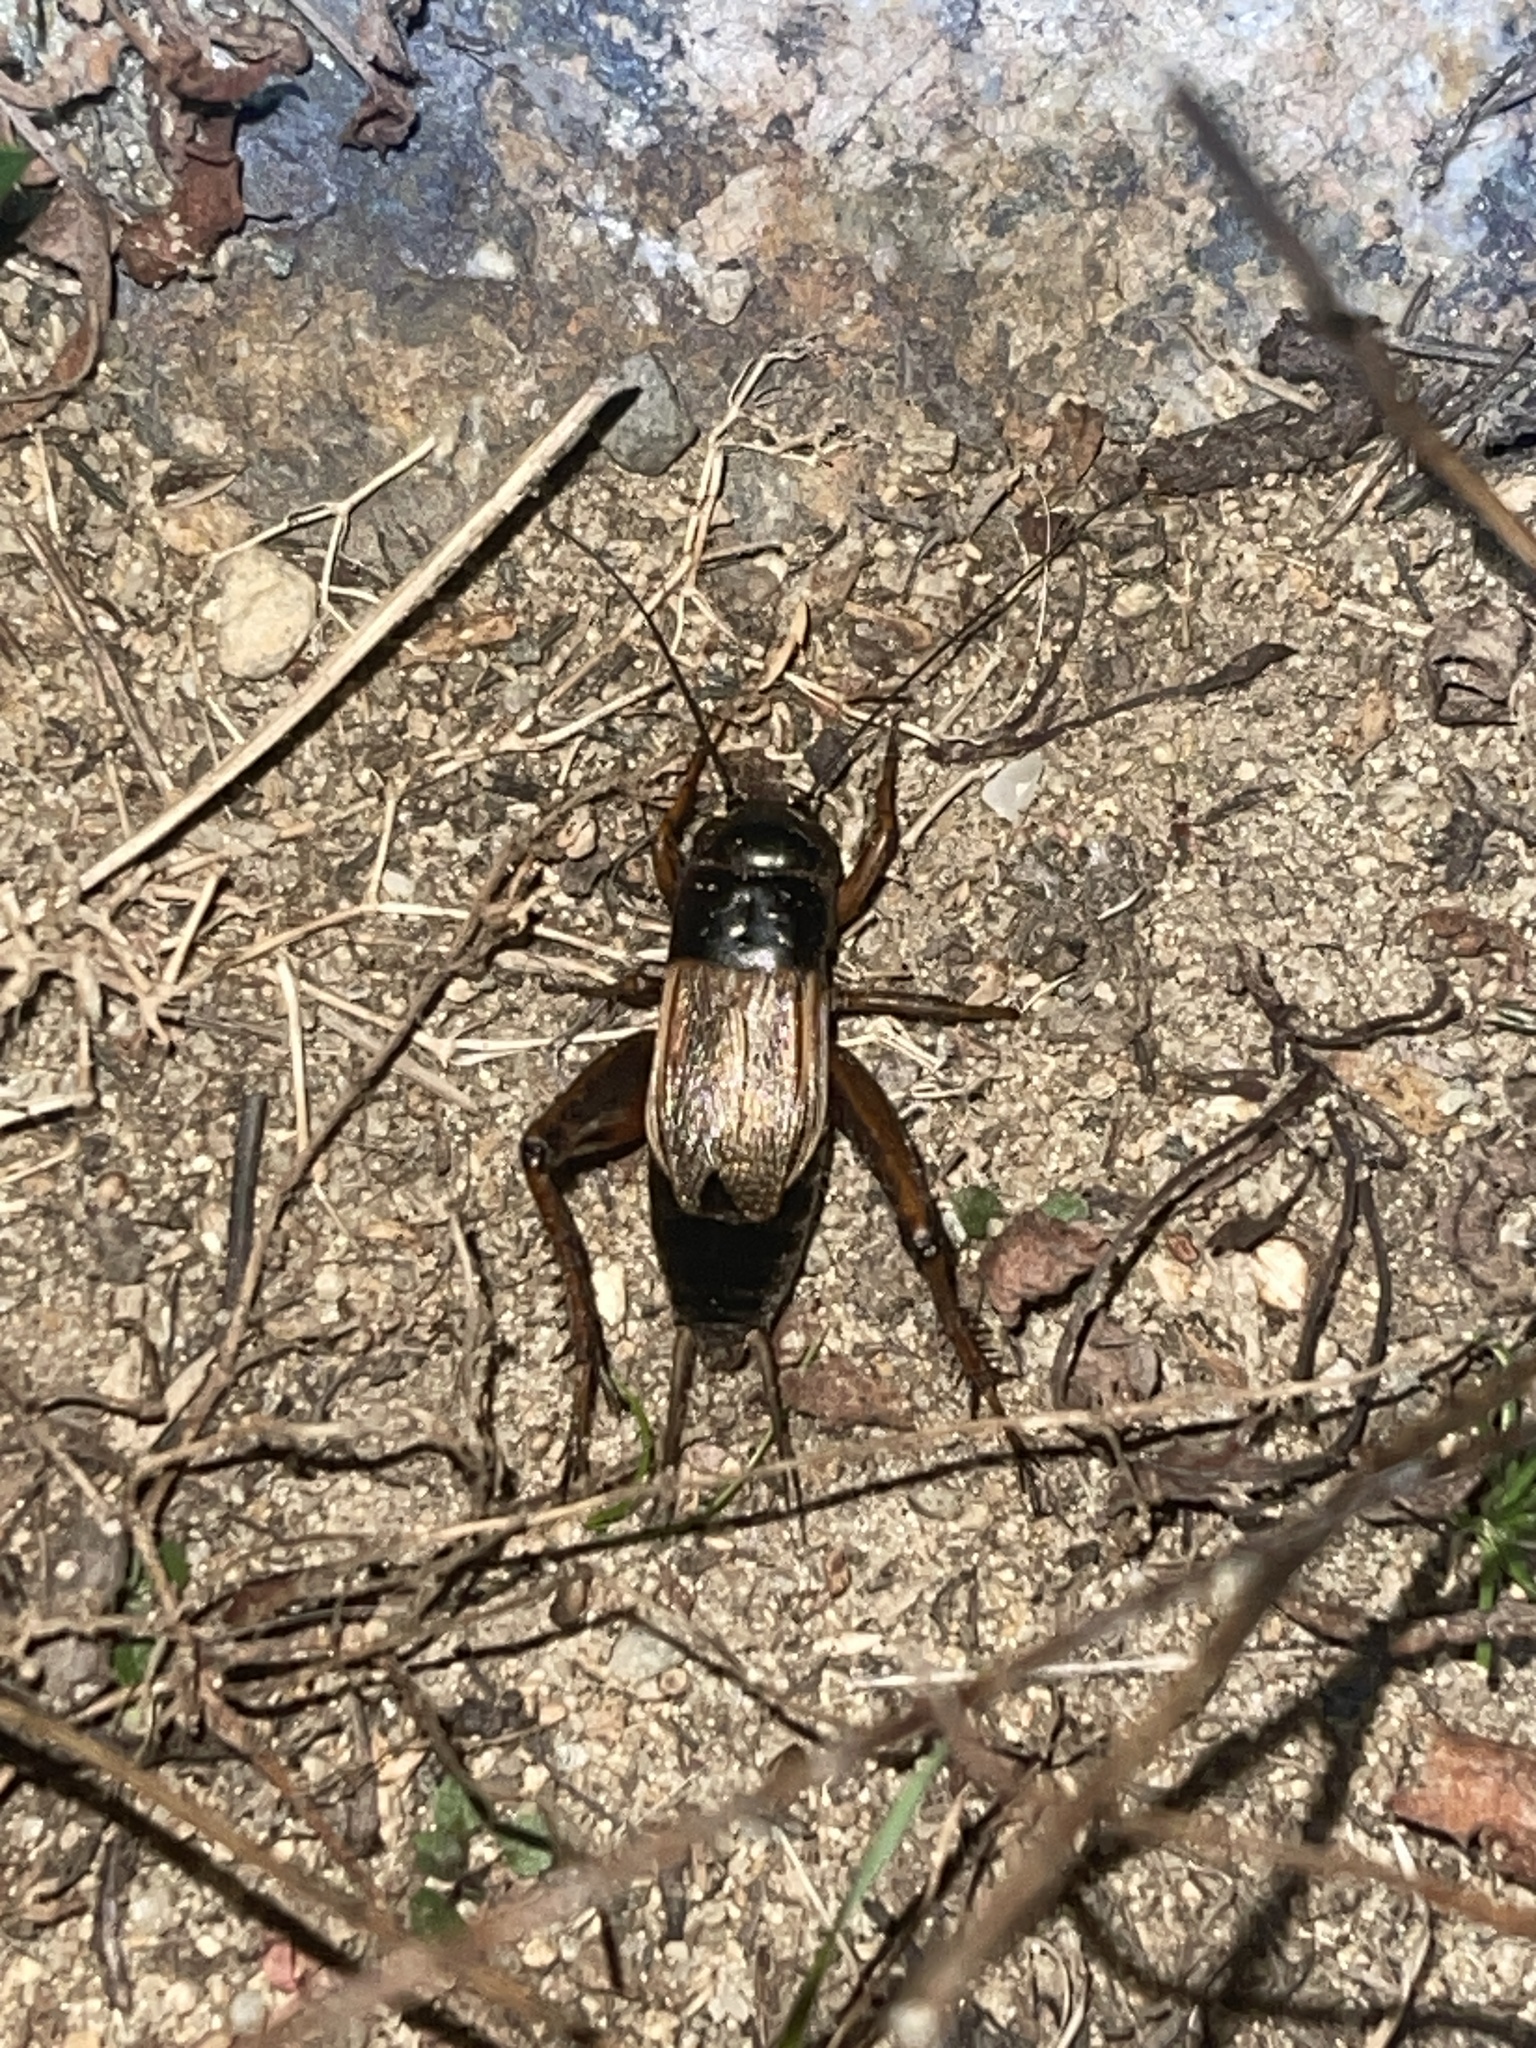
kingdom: Animalia
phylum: Arthropoda
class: Insecta
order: Orthoptera
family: Gryllidae
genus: Gryllus
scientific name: Gryllus pennsylvanicus
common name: Fall field cricket
